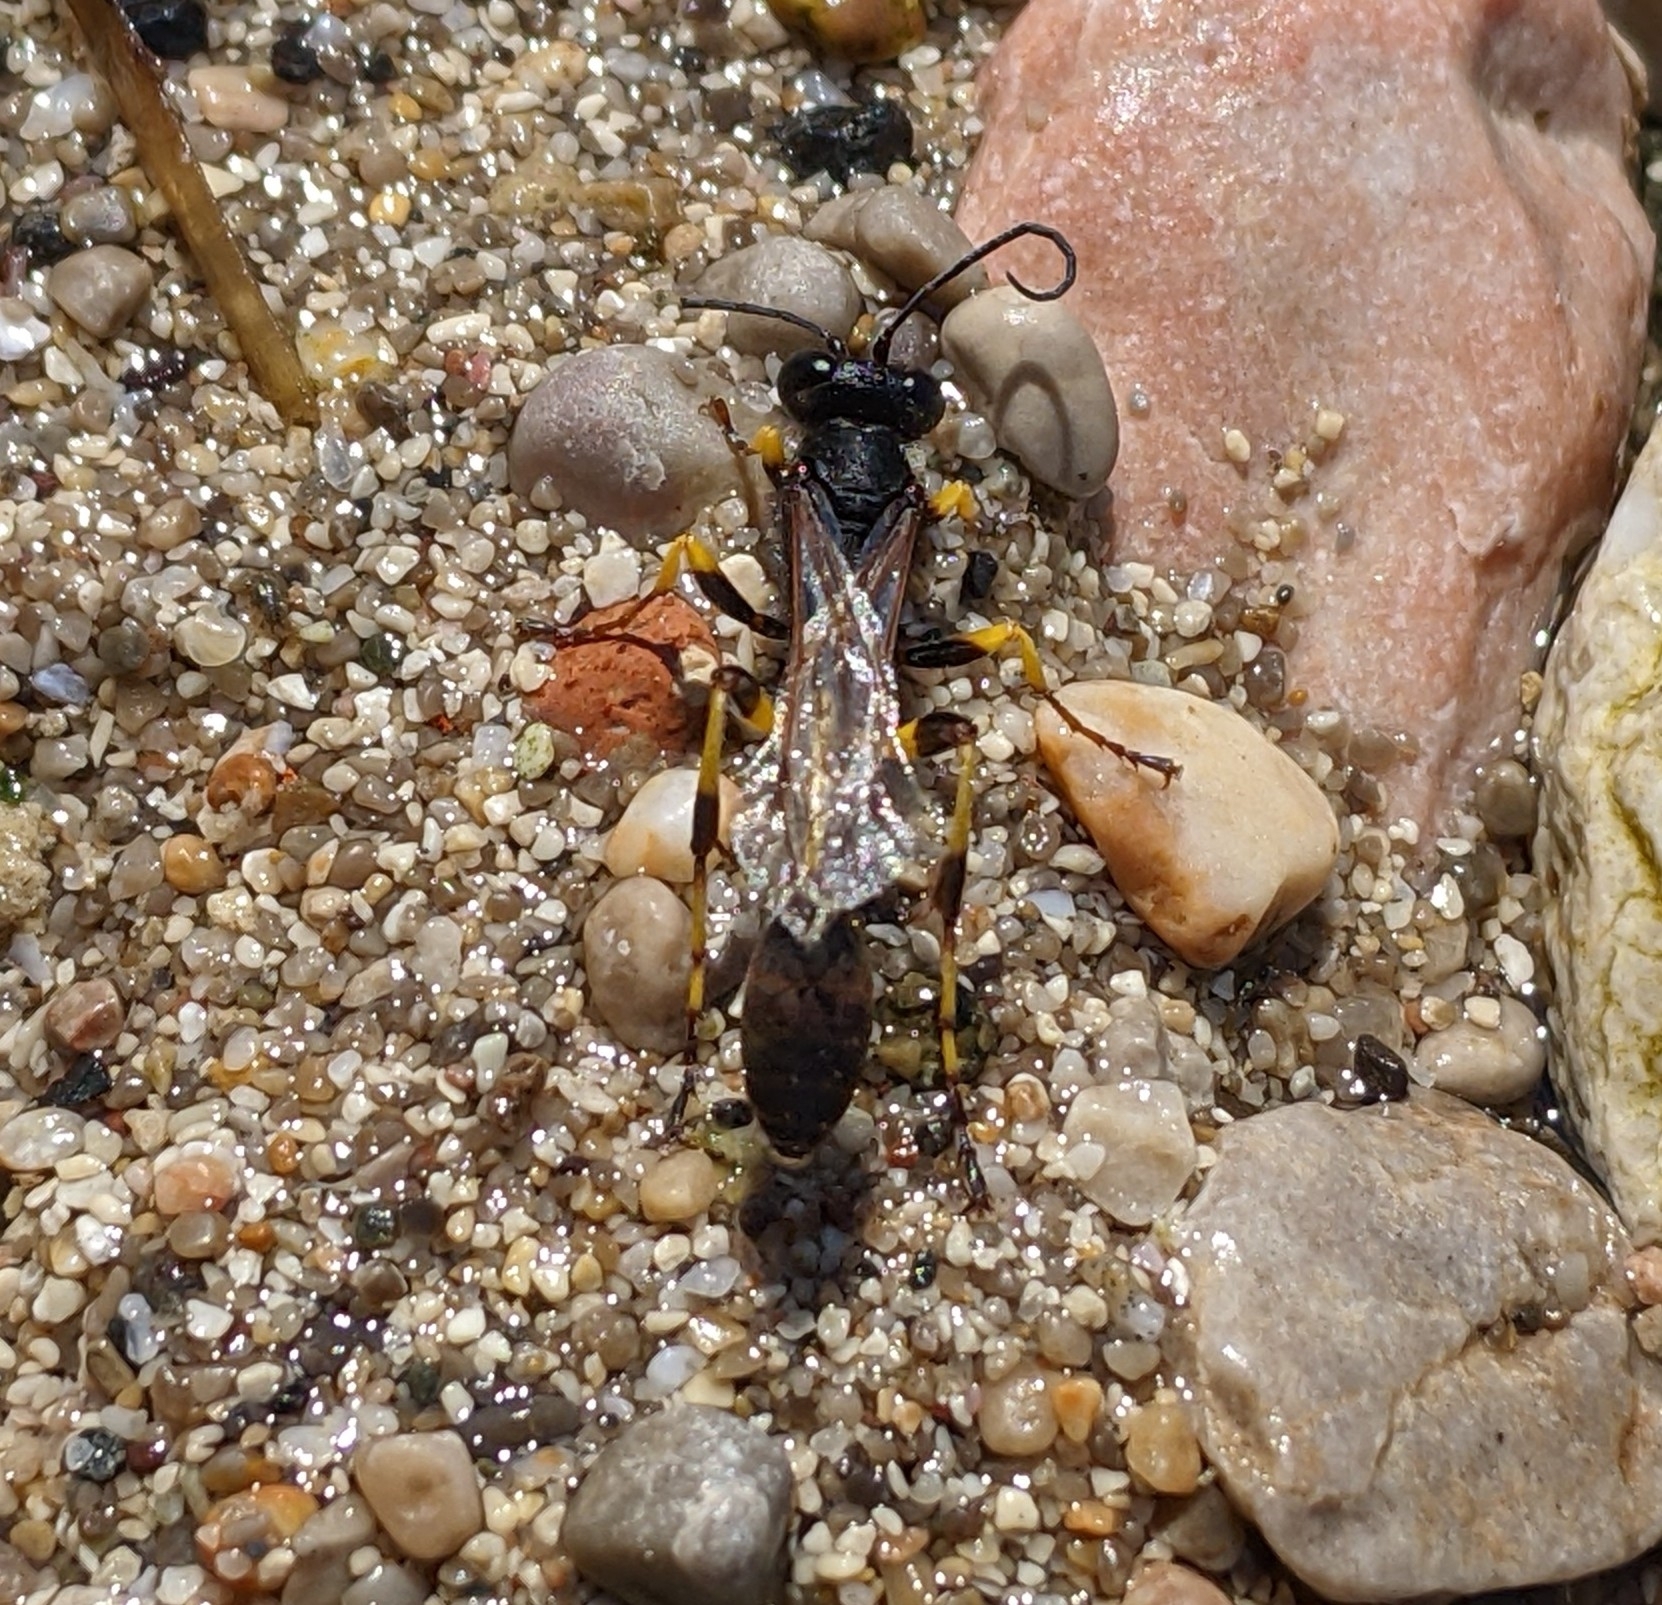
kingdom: Animalia
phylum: Arthropoda
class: Insecta
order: Hymenoptera
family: Sphecidae
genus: Sceliphron
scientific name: Sceliphron spirifex
